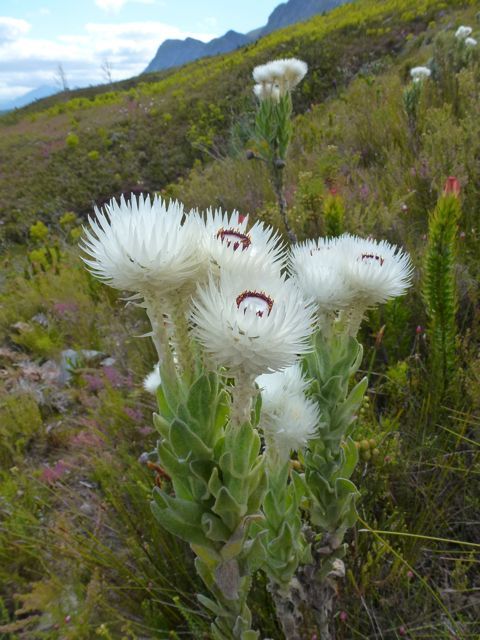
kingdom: Plantae
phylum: Tracheophyta
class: Magnoliopsida
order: Asterales
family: Asteraceae
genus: Syncarpha
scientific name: Syncarpha vestita
